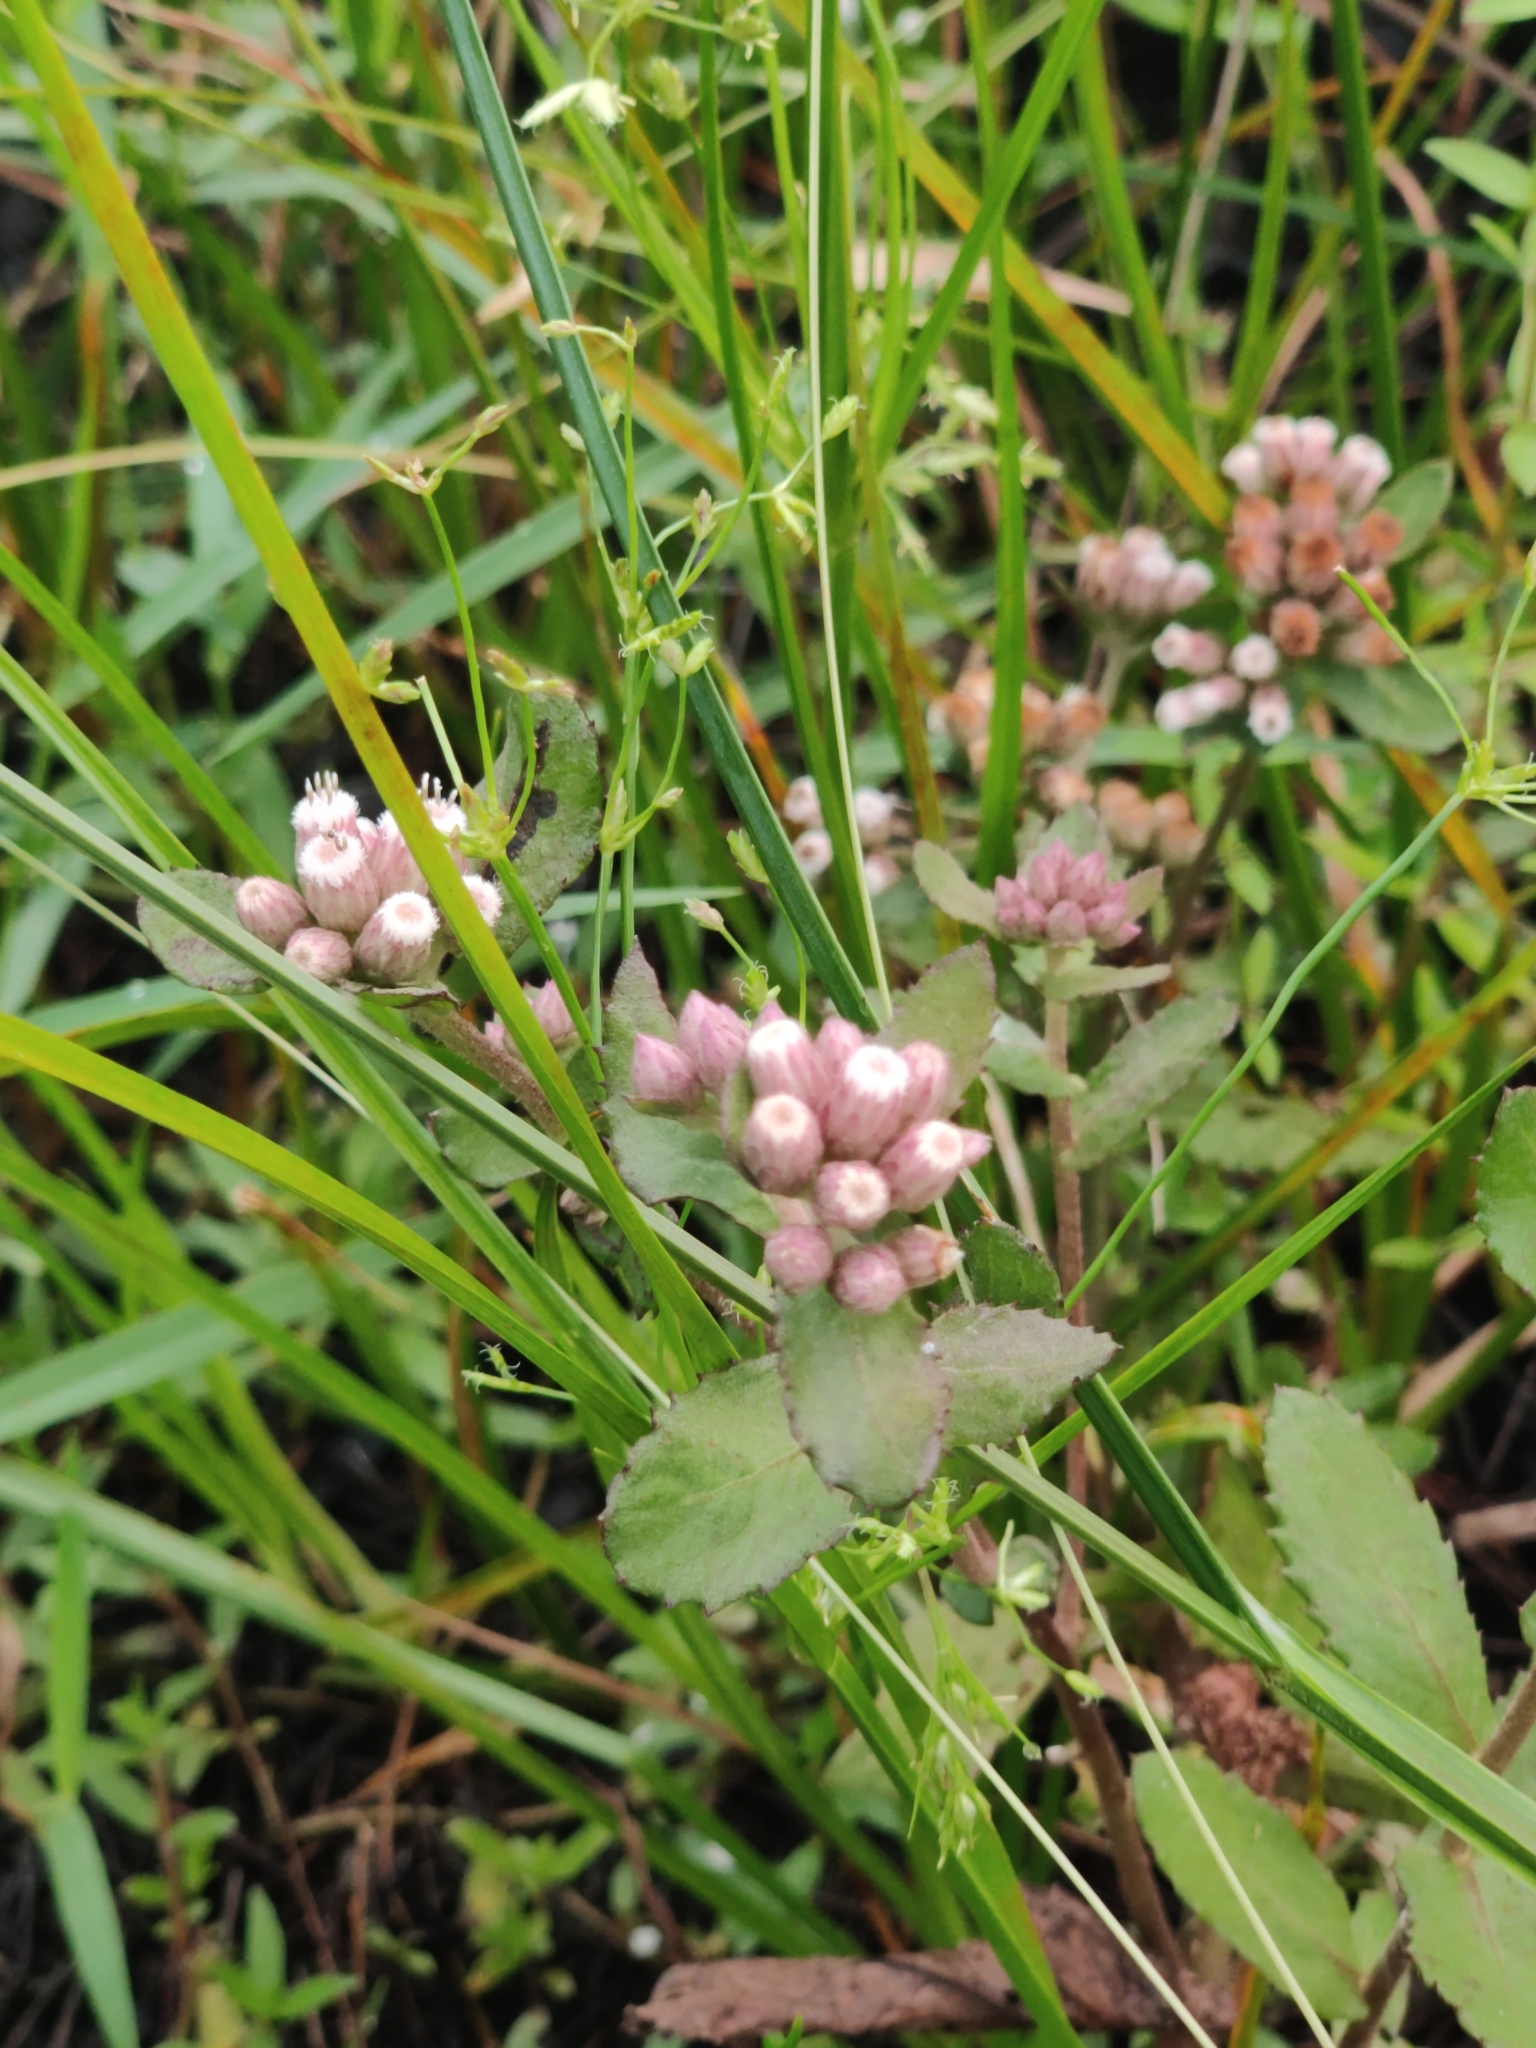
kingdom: Plantae
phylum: Tracheophyta
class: Magnoliopsida
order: Asterales
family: Asteraceae
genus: Pluchea
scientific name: Pluchea foetida
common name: Stinking camphorweed
